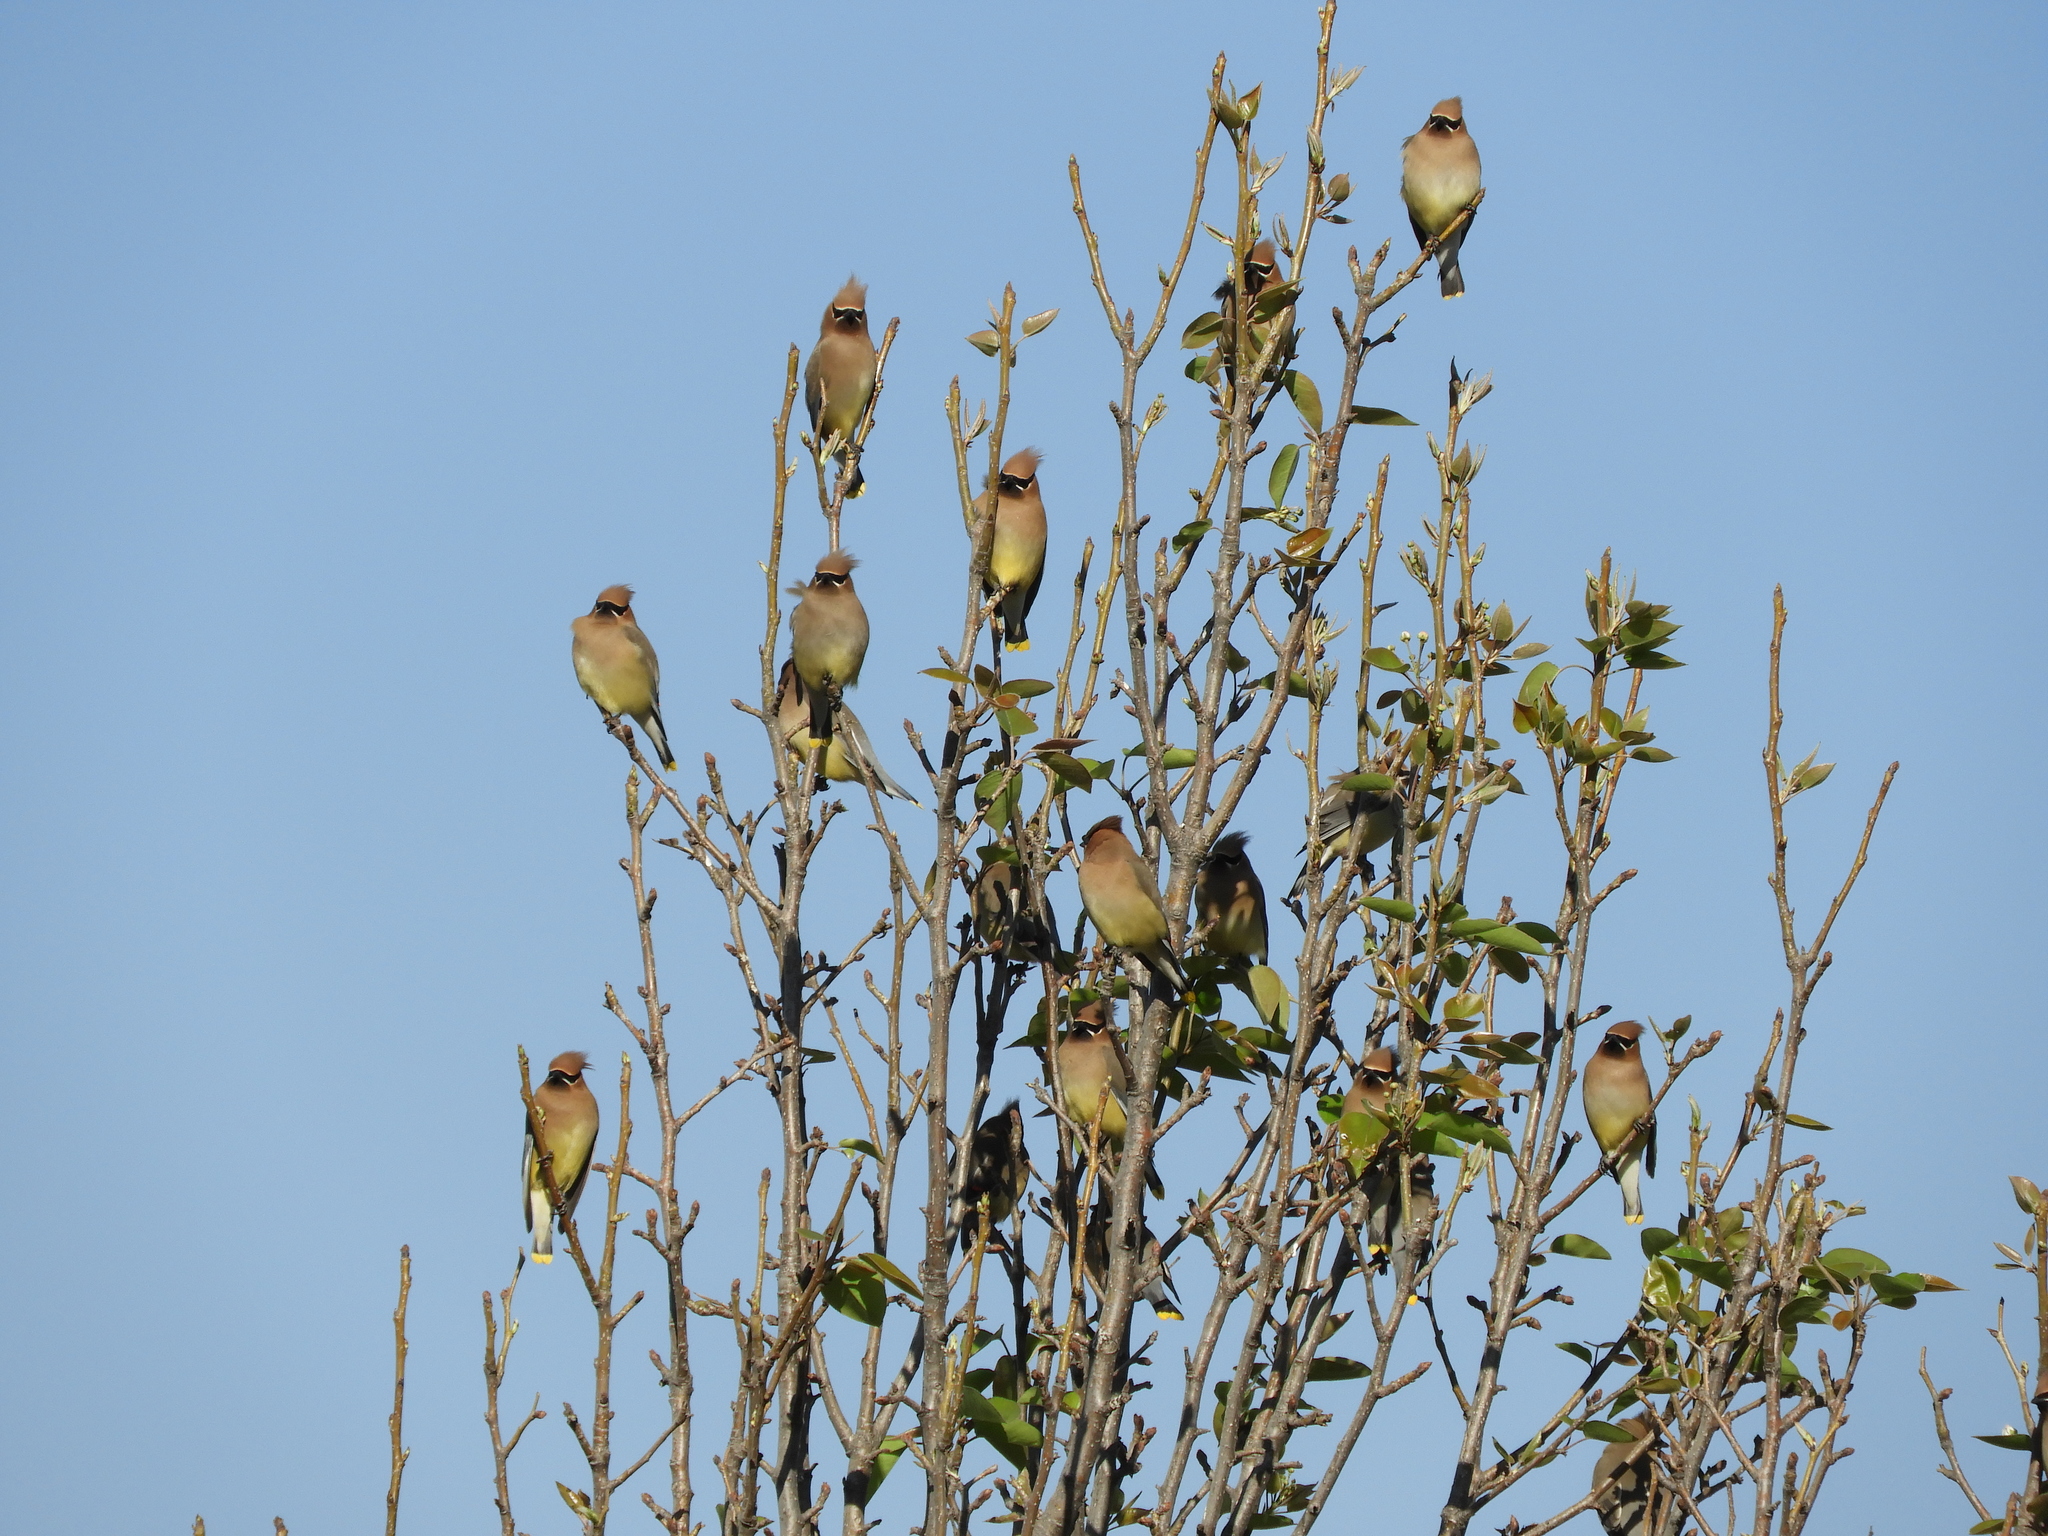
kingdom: Animalia
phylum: Chordata
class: Aves
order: Passeriformes
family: Bombycillidae
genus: Bombycilla
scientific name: Bombycilla cedrorum
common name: Cedar waxwing
